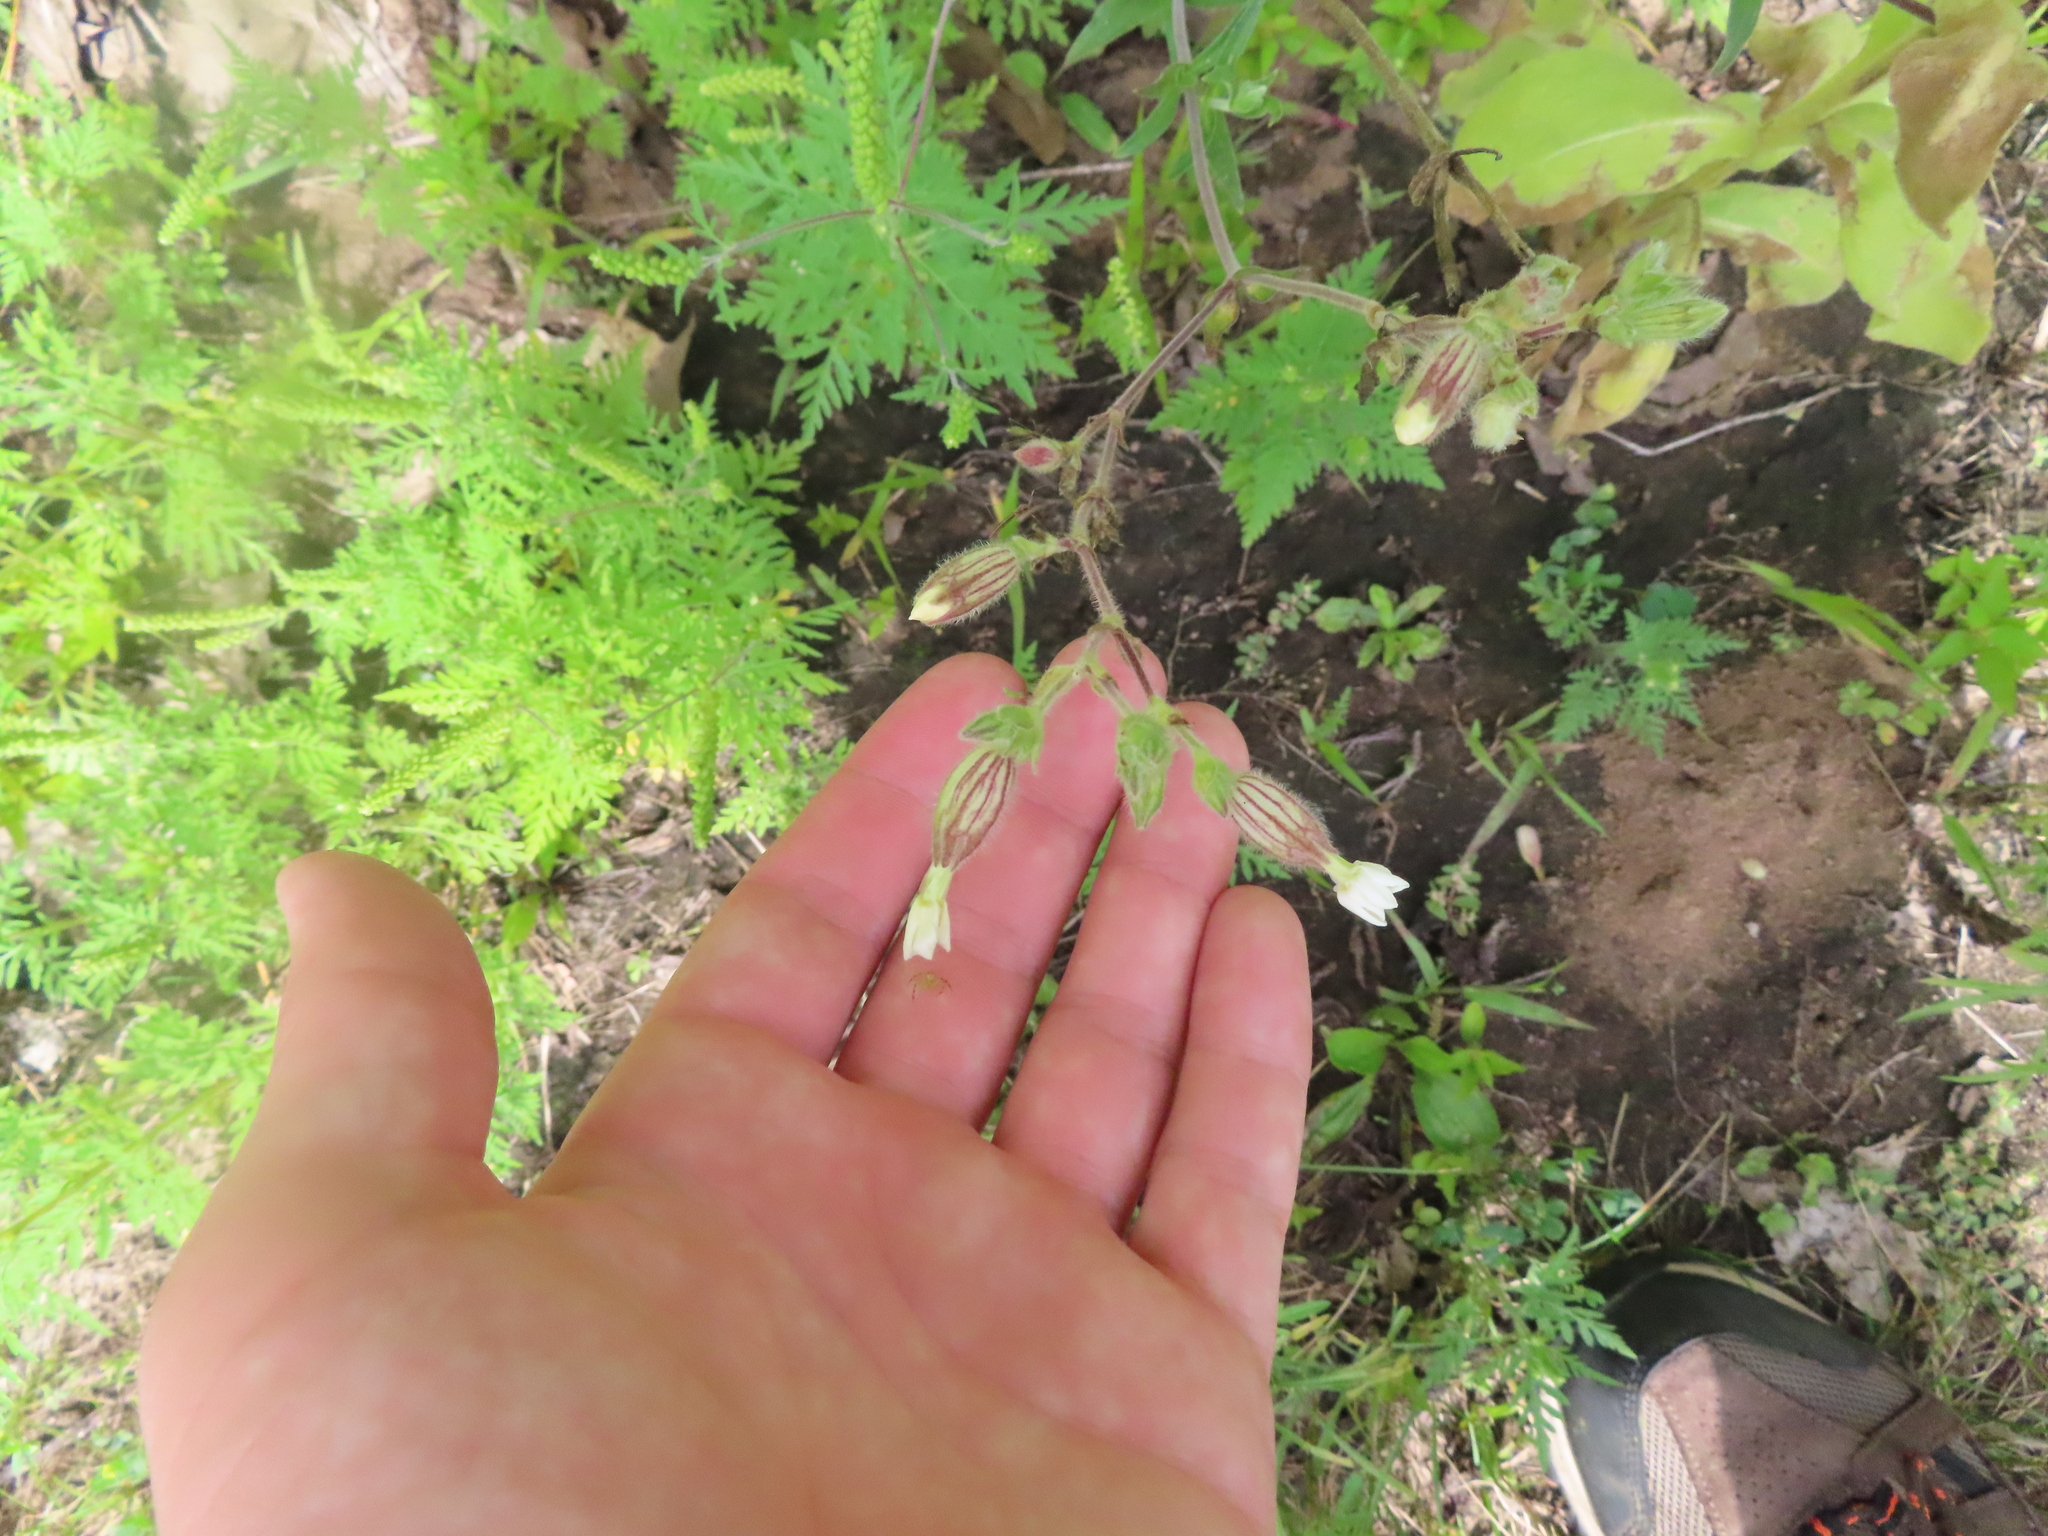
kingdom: Plantae
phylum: Tracheophyta
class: Magnoliopsida
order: Caryophyllales
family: Caryophyllaceae
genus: Silene
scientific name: Silene latifolia
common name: White campion
